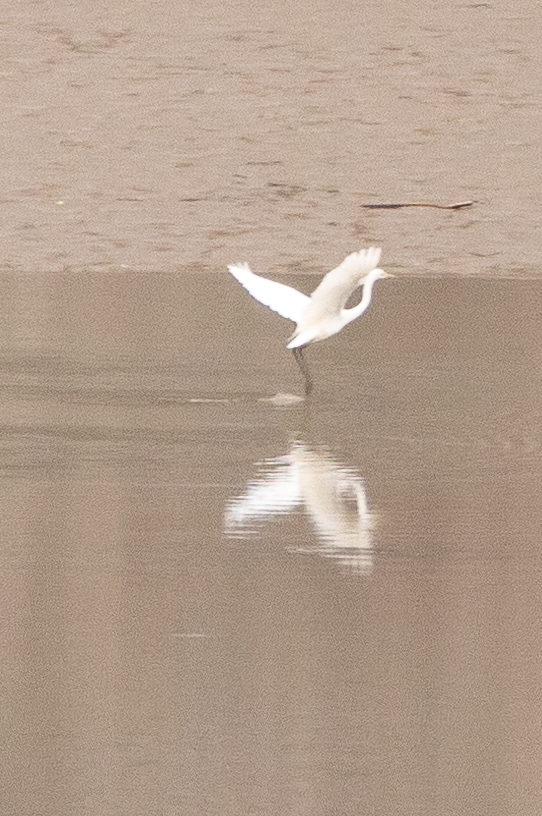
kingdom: Animalia
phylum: Chordata
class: Aves
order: Pelecaniformes
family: Ardeidae
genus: Ardea
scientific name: Ardea alba
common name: Great egret
